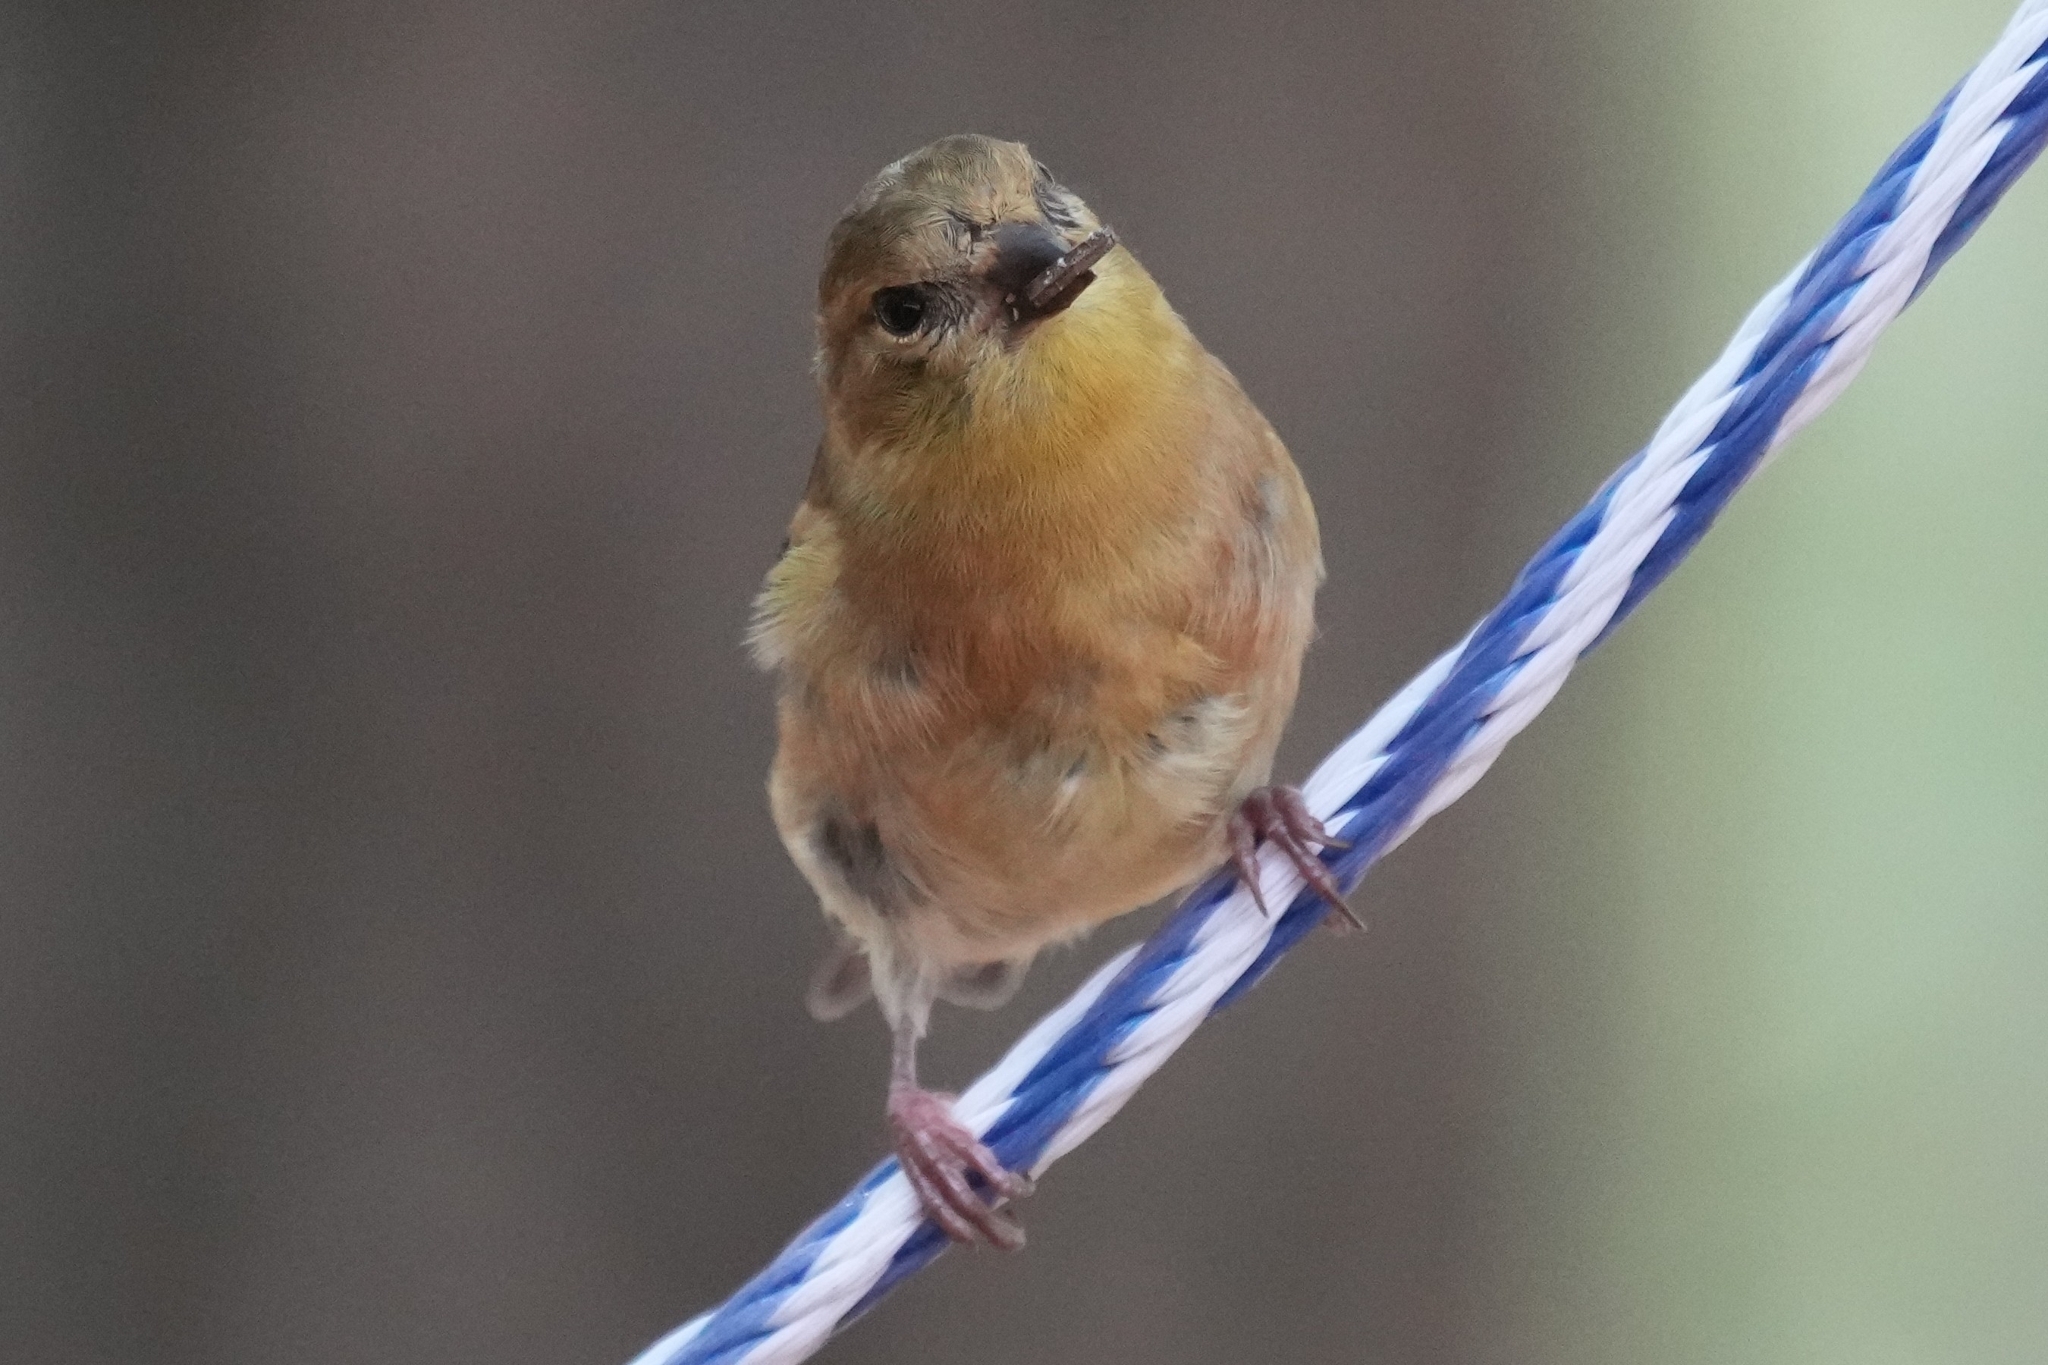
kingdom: Animalia
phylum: Chordata
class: Aves
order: Passeriformes
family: Fringillidae
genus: Spinus
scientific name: Spinus tristis
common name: American goldfinch
